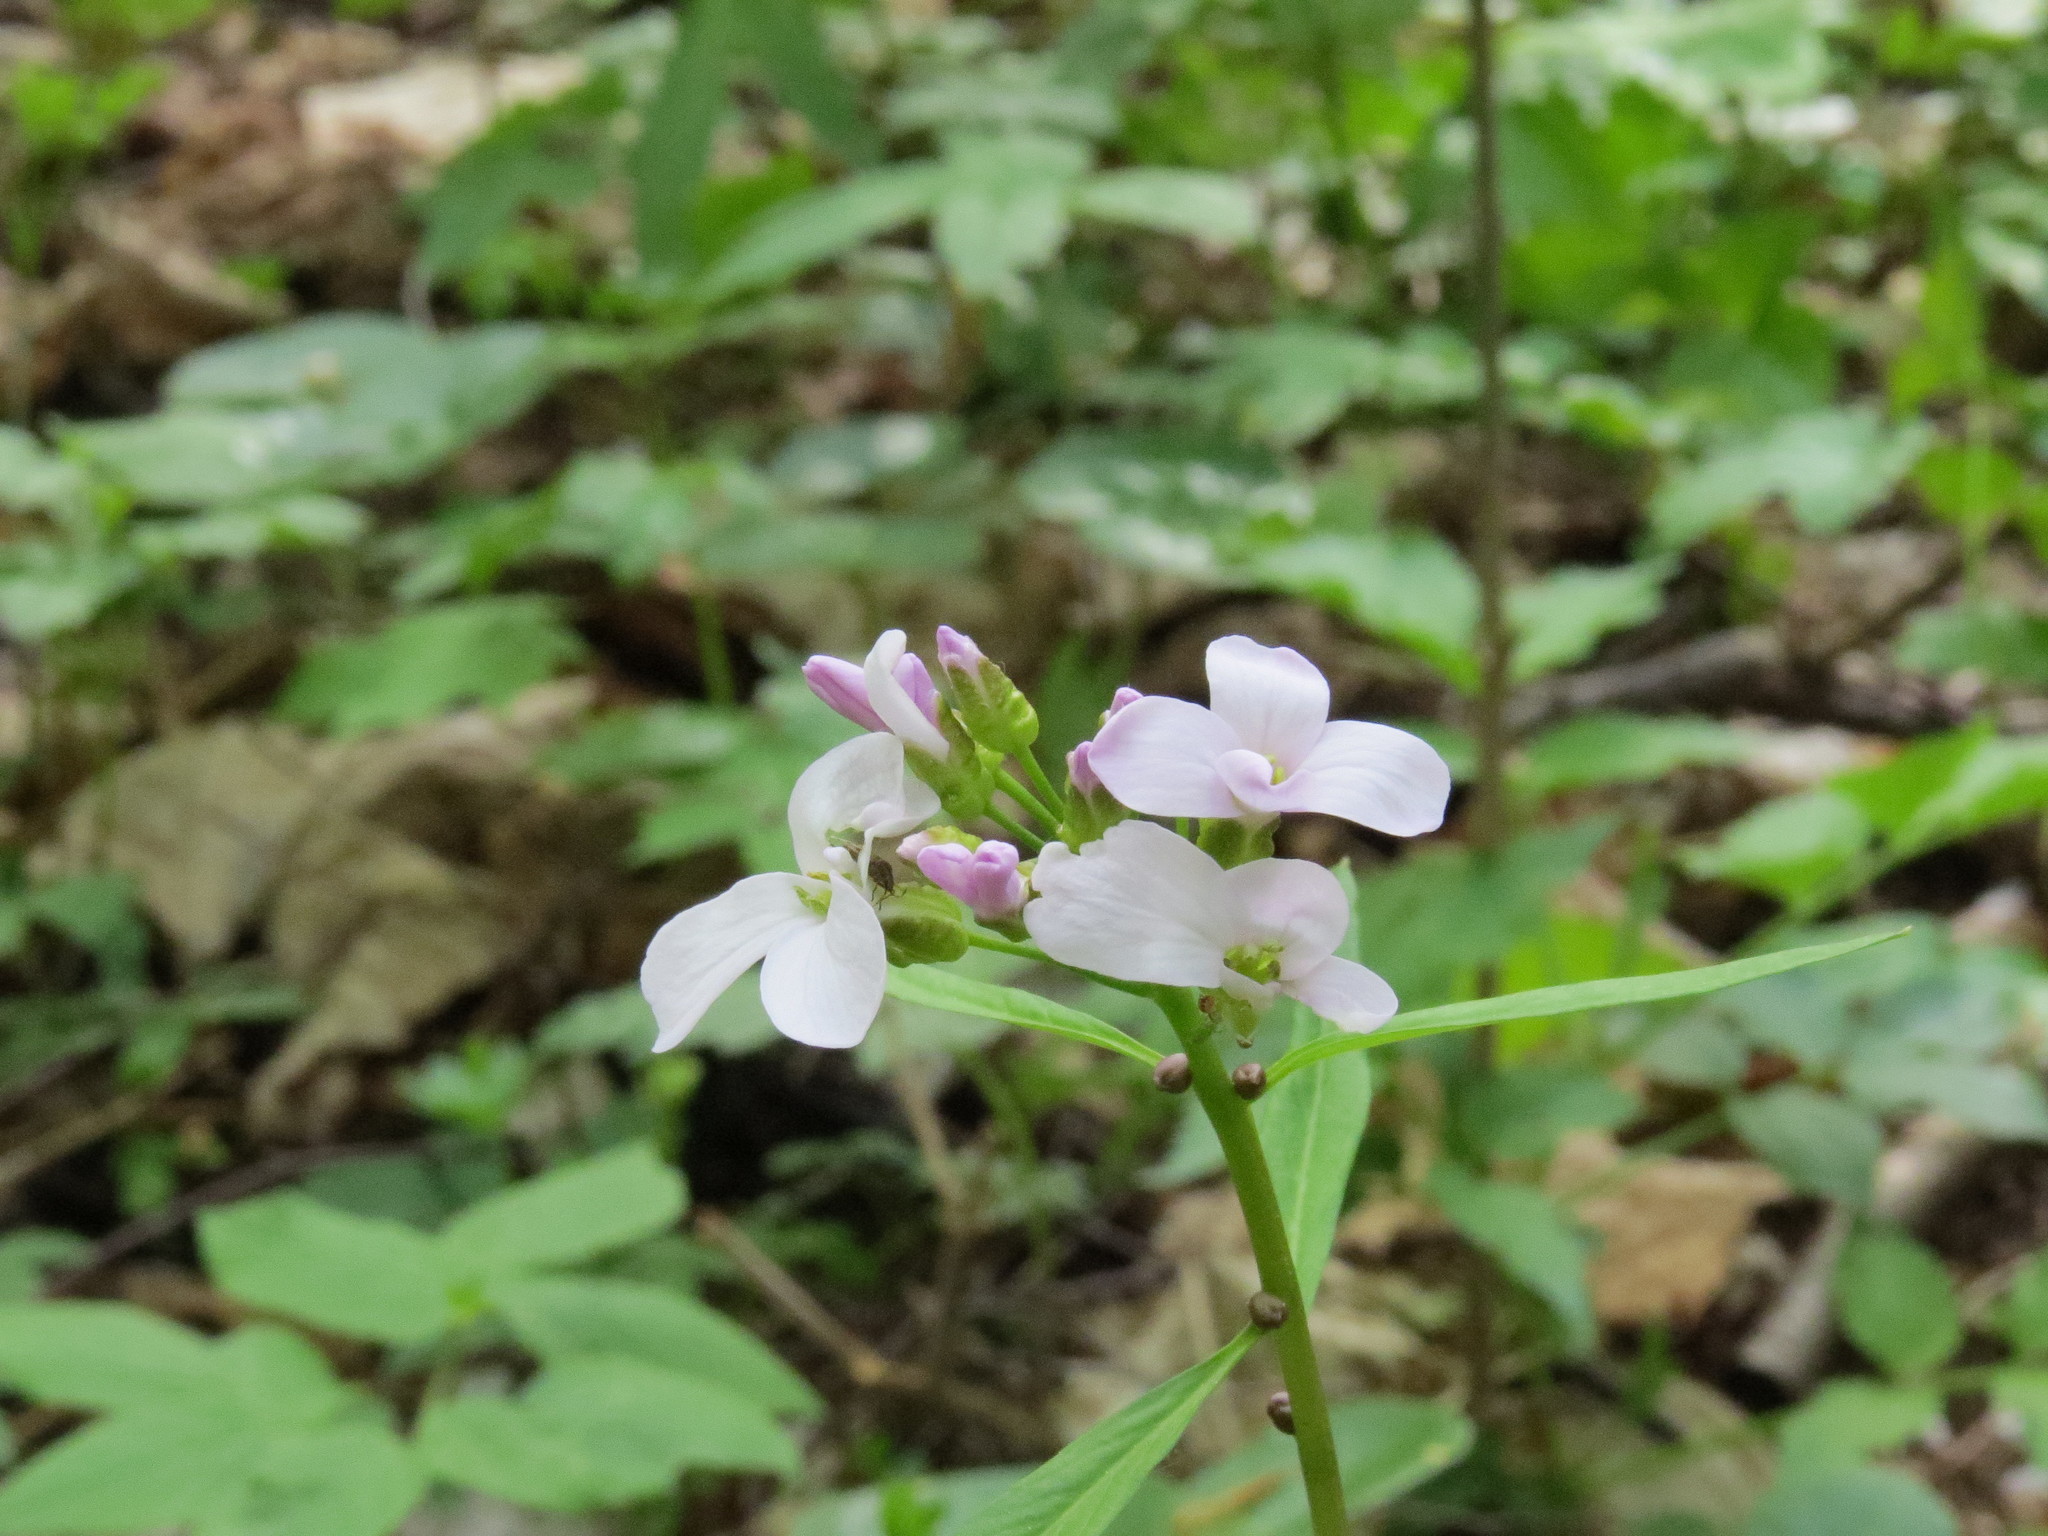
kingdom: Plantae
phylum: Tracheophyta
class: Magnoliopsida
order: Brassicales
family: Brassicaceae
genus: Cardamine
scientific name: Cardamine bulbifera
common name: Coralroot bittercress
